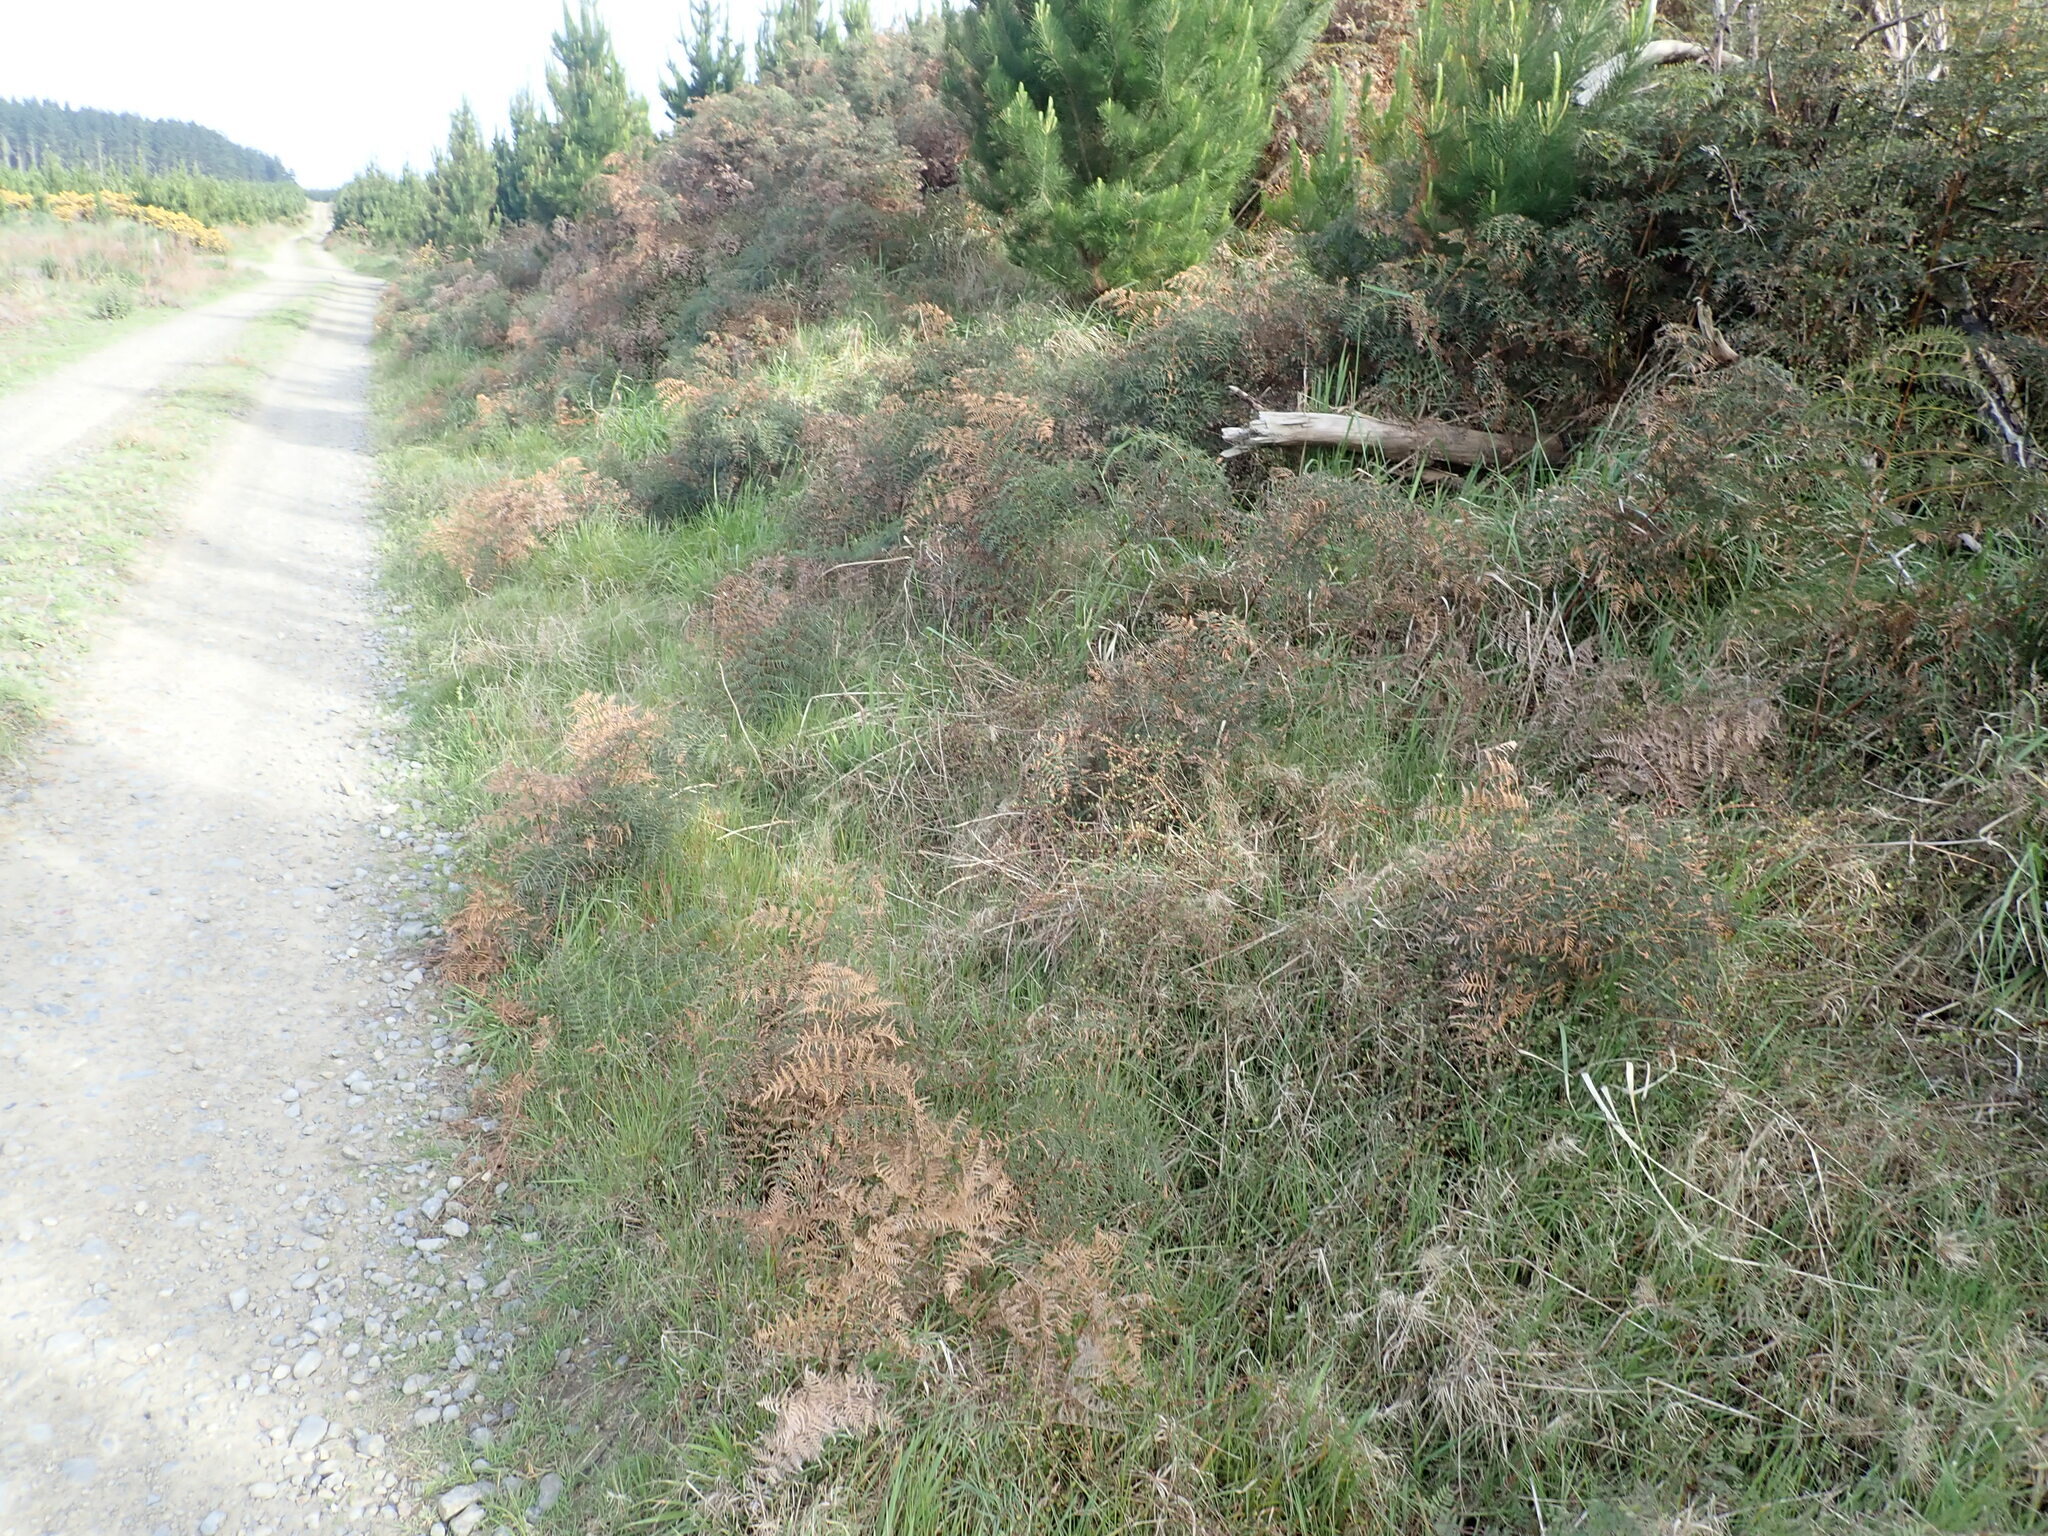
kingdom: Plantae
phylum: Tracheophyta
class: Polypodiopsida
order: Polypodiales
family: Dennstaedtiaceae
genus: Pteridium
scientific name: Pteridium esculentum
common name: Bracken fern
